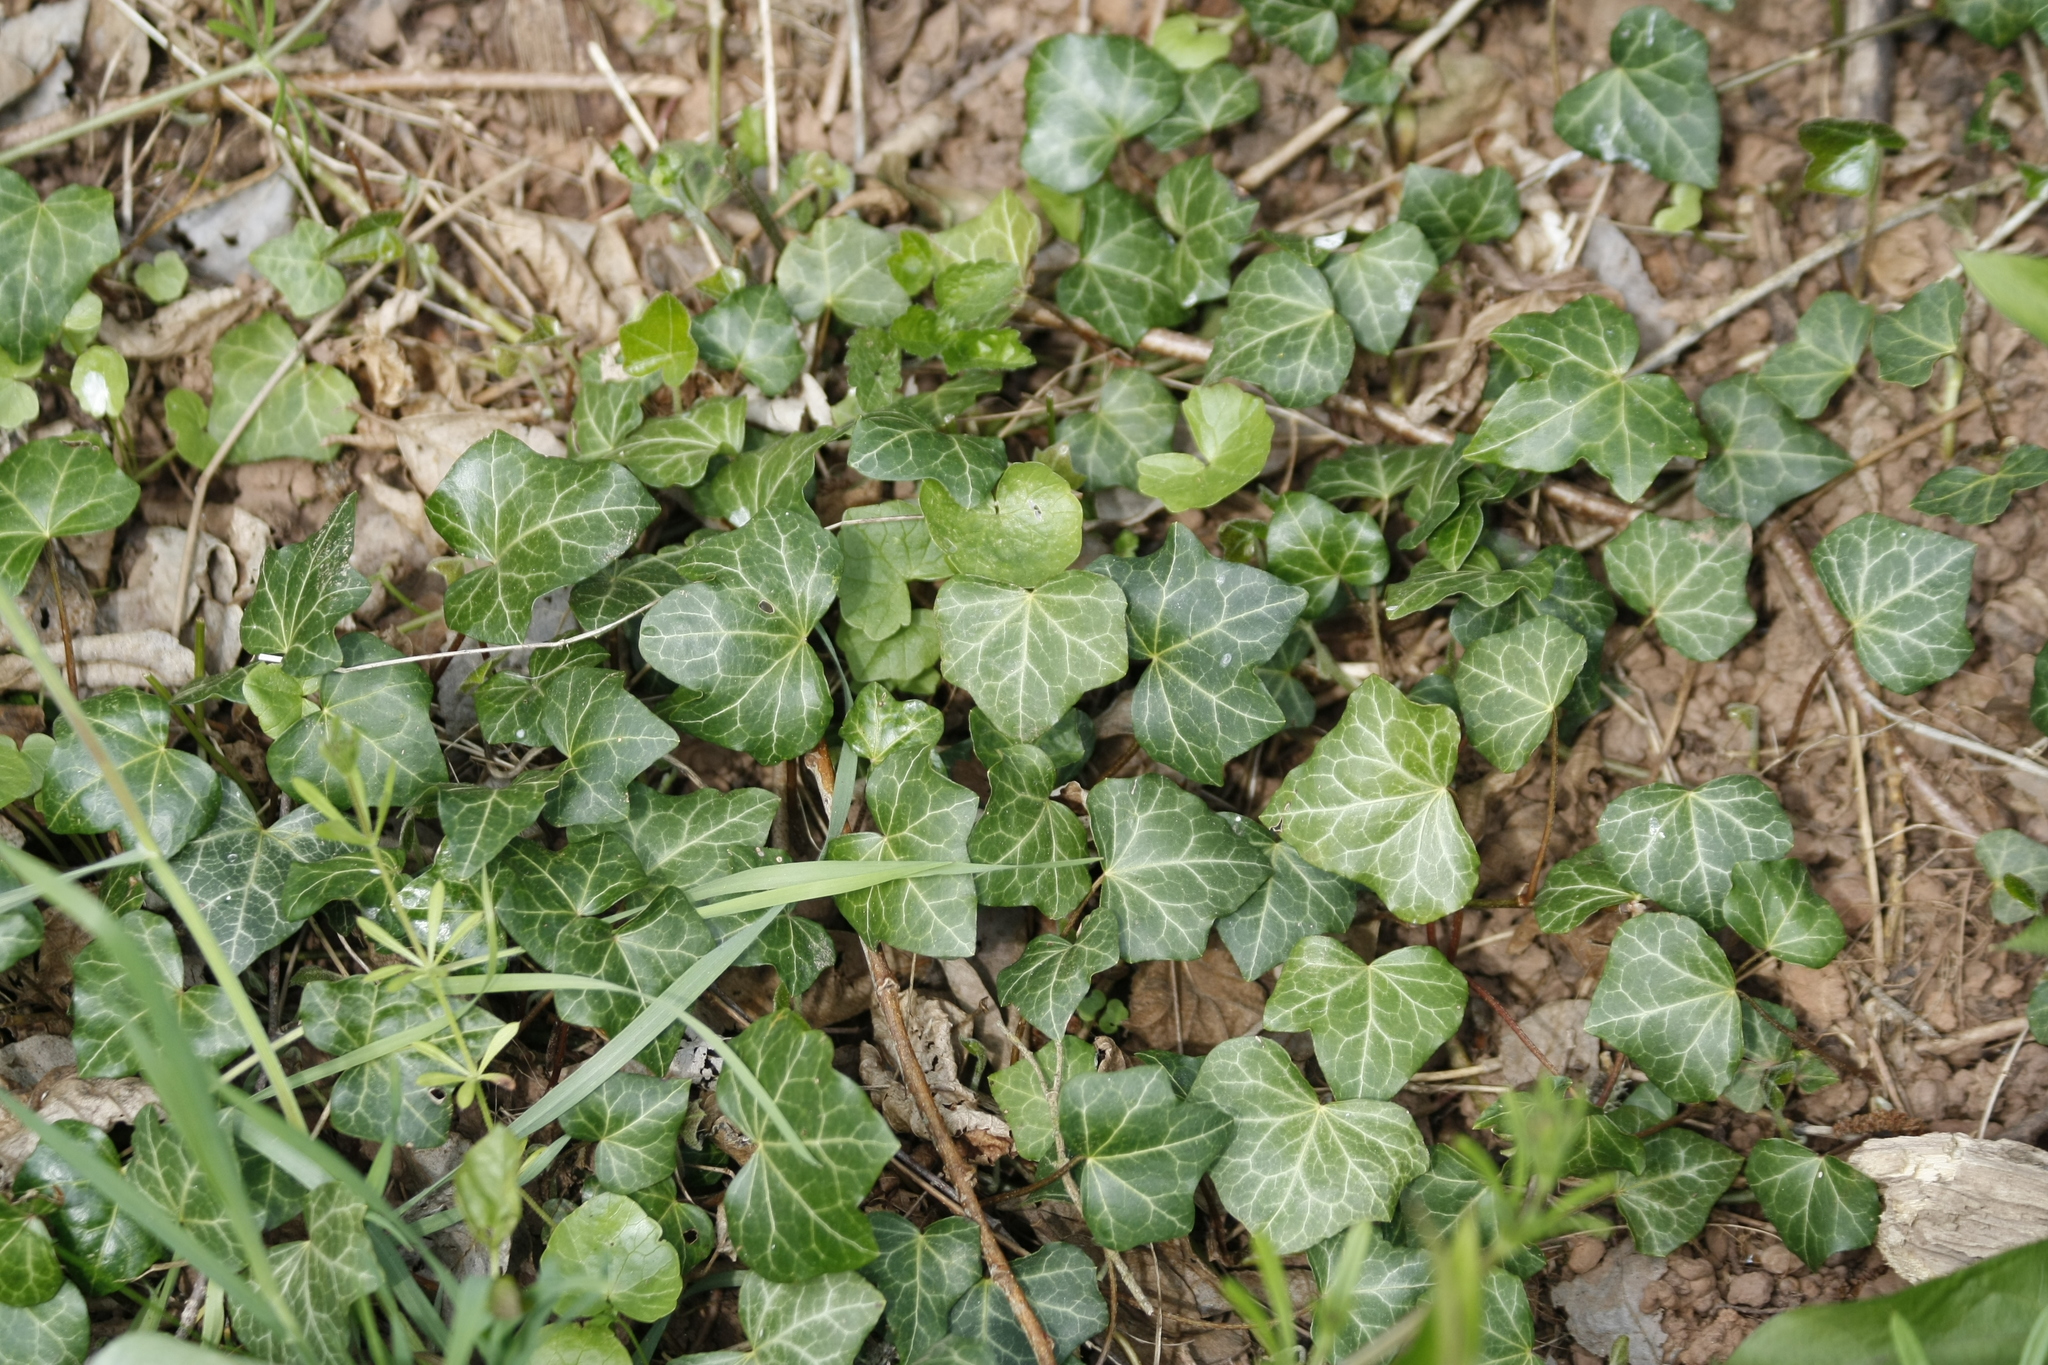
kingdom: Plantae
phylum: Tracheophyta
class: Magnoliopsida
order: Apiales
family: Araliaceae
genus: Hedera
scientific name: Hedera helix
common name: Ivy
